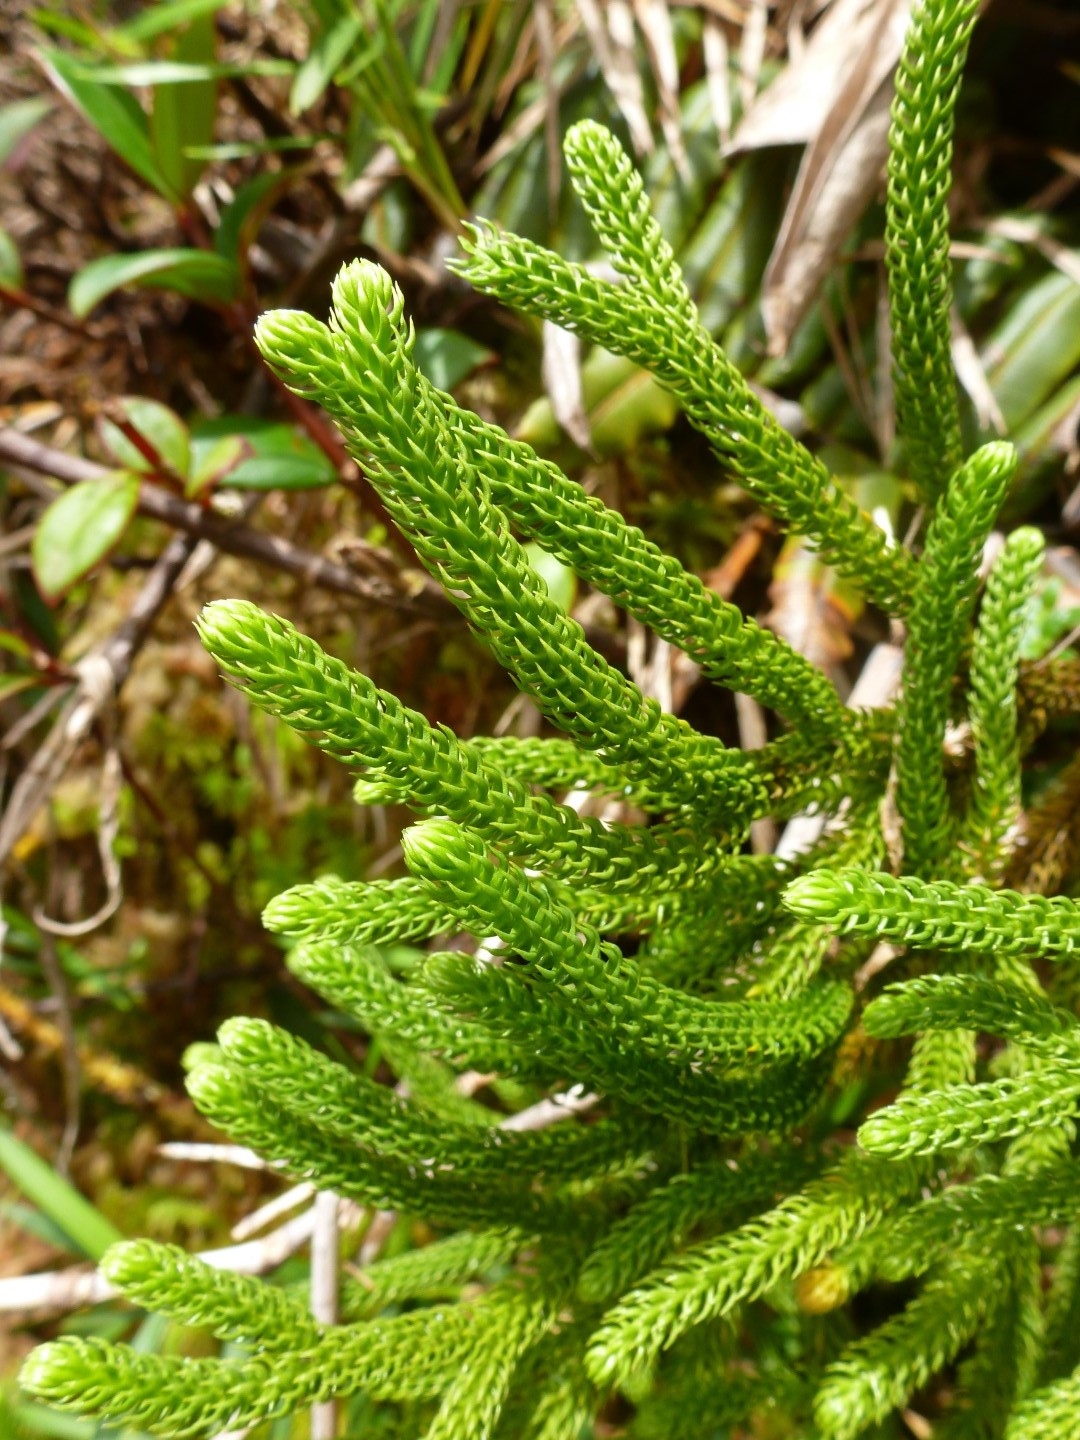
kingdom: Plantae
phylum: Tracheophyta
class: Lycopodiopsida
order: Lycopodiales
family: Lycopodiaceae
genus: Palhinhaea
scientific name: Palhinhaea torta
